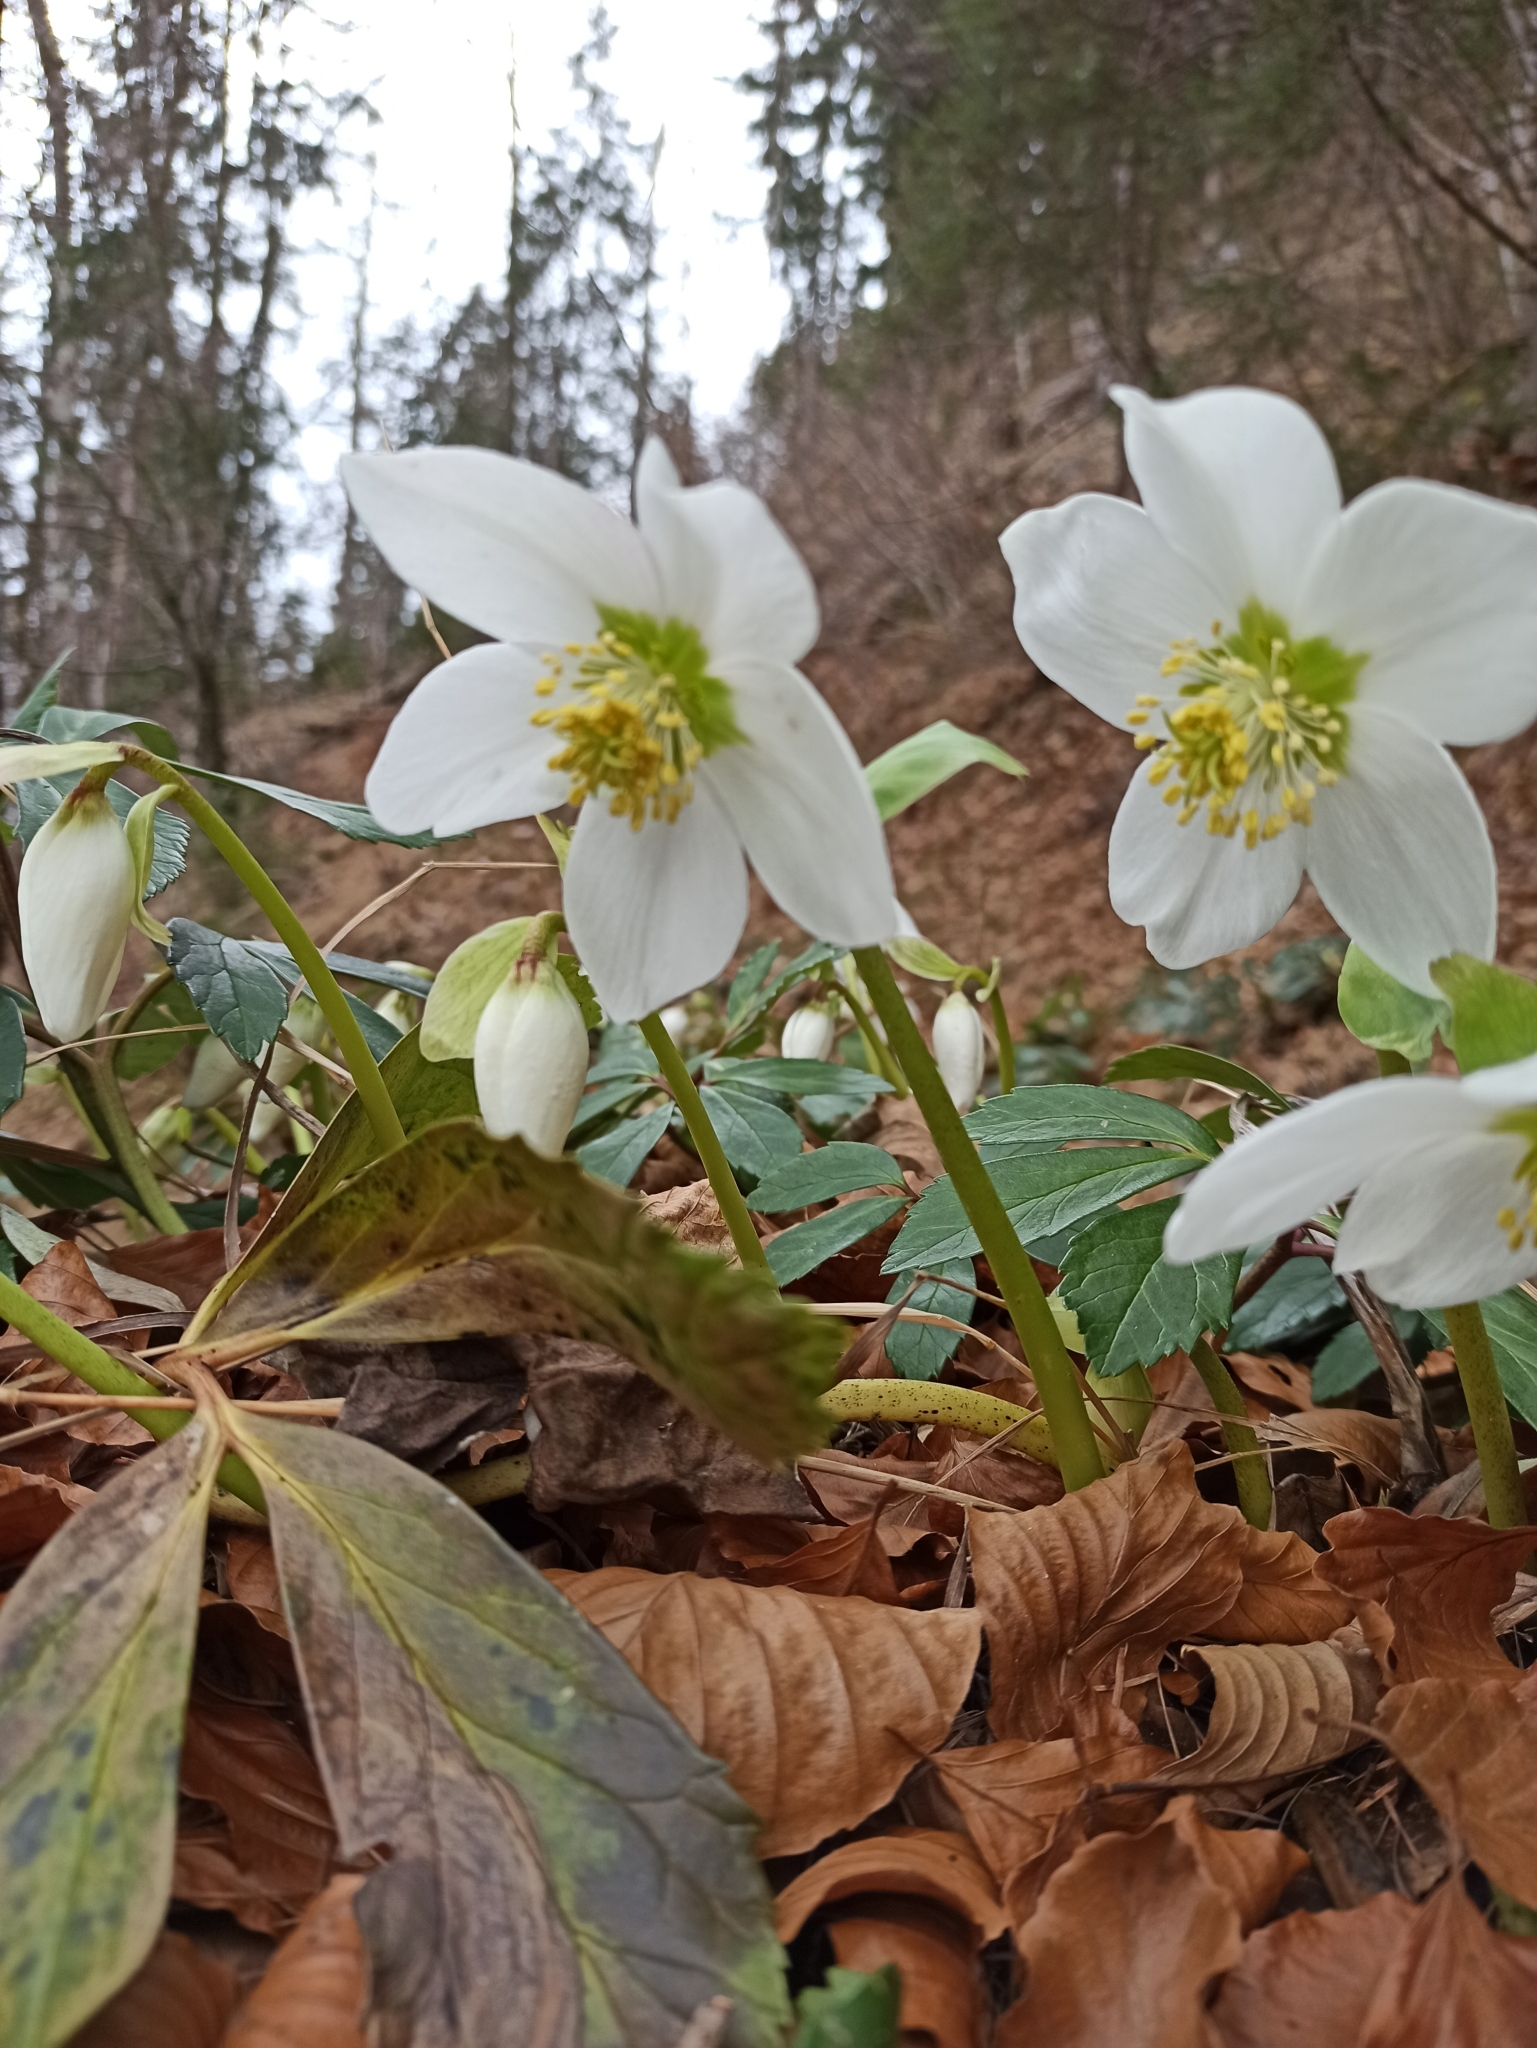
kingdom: Plantae
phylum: Tracheophyta
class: Magnoliopsida
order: Ranunculales
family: Ranunculaceae
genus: Helleborus
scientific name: Helleborus niger
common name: Black hellebore
